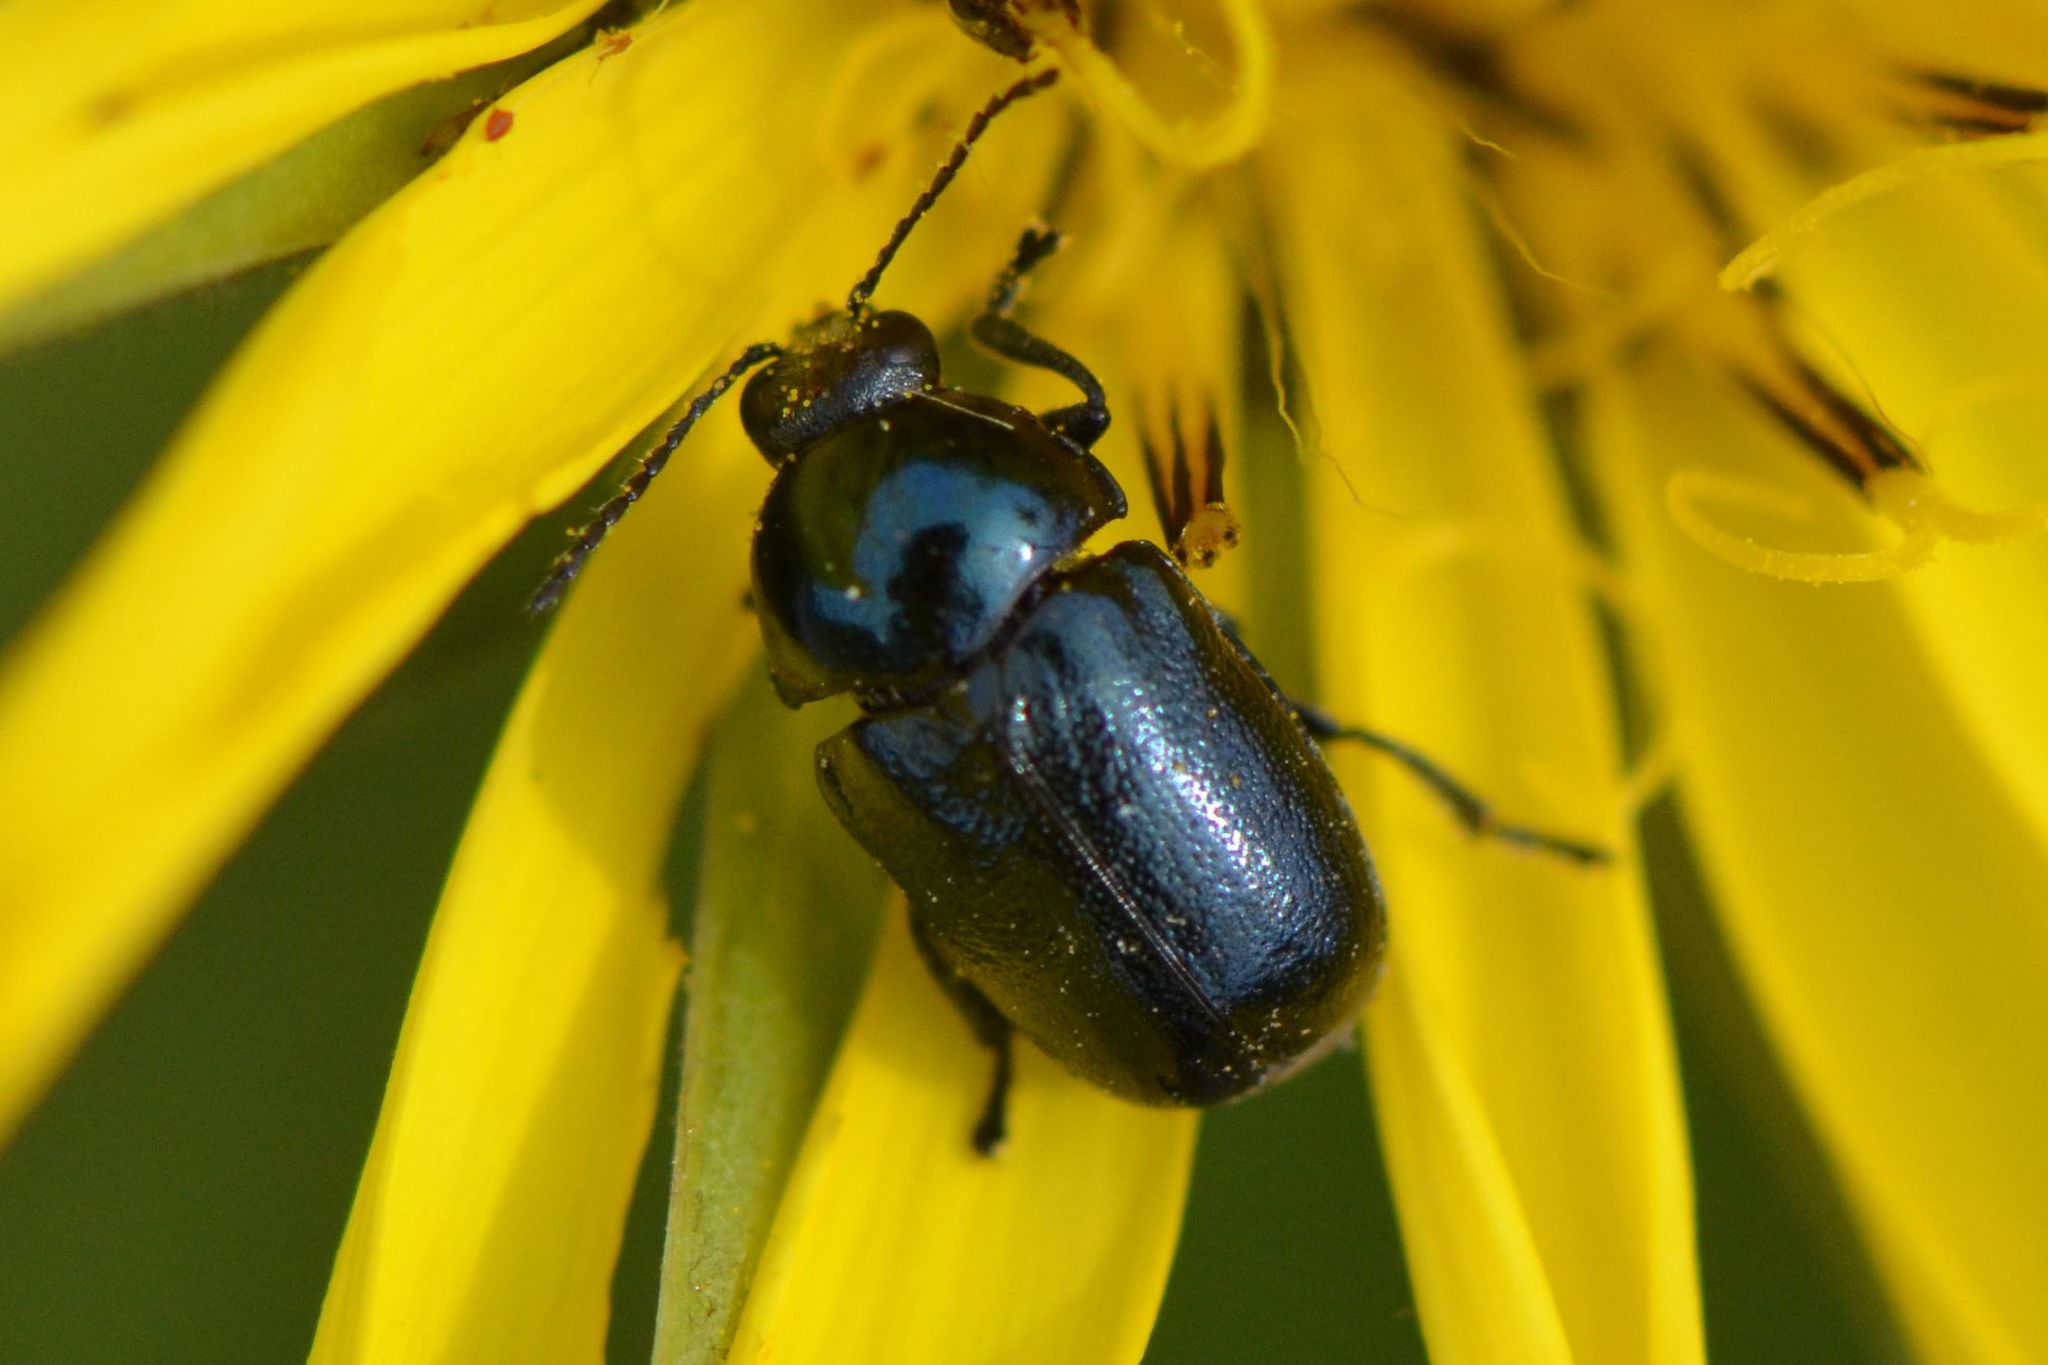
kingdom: Animalia
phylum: Arthropoda
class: Insecta
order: Coleoptera
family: Chrysomelidae
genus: Cryptocephalus
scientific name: Cryptocephalus violaceus
